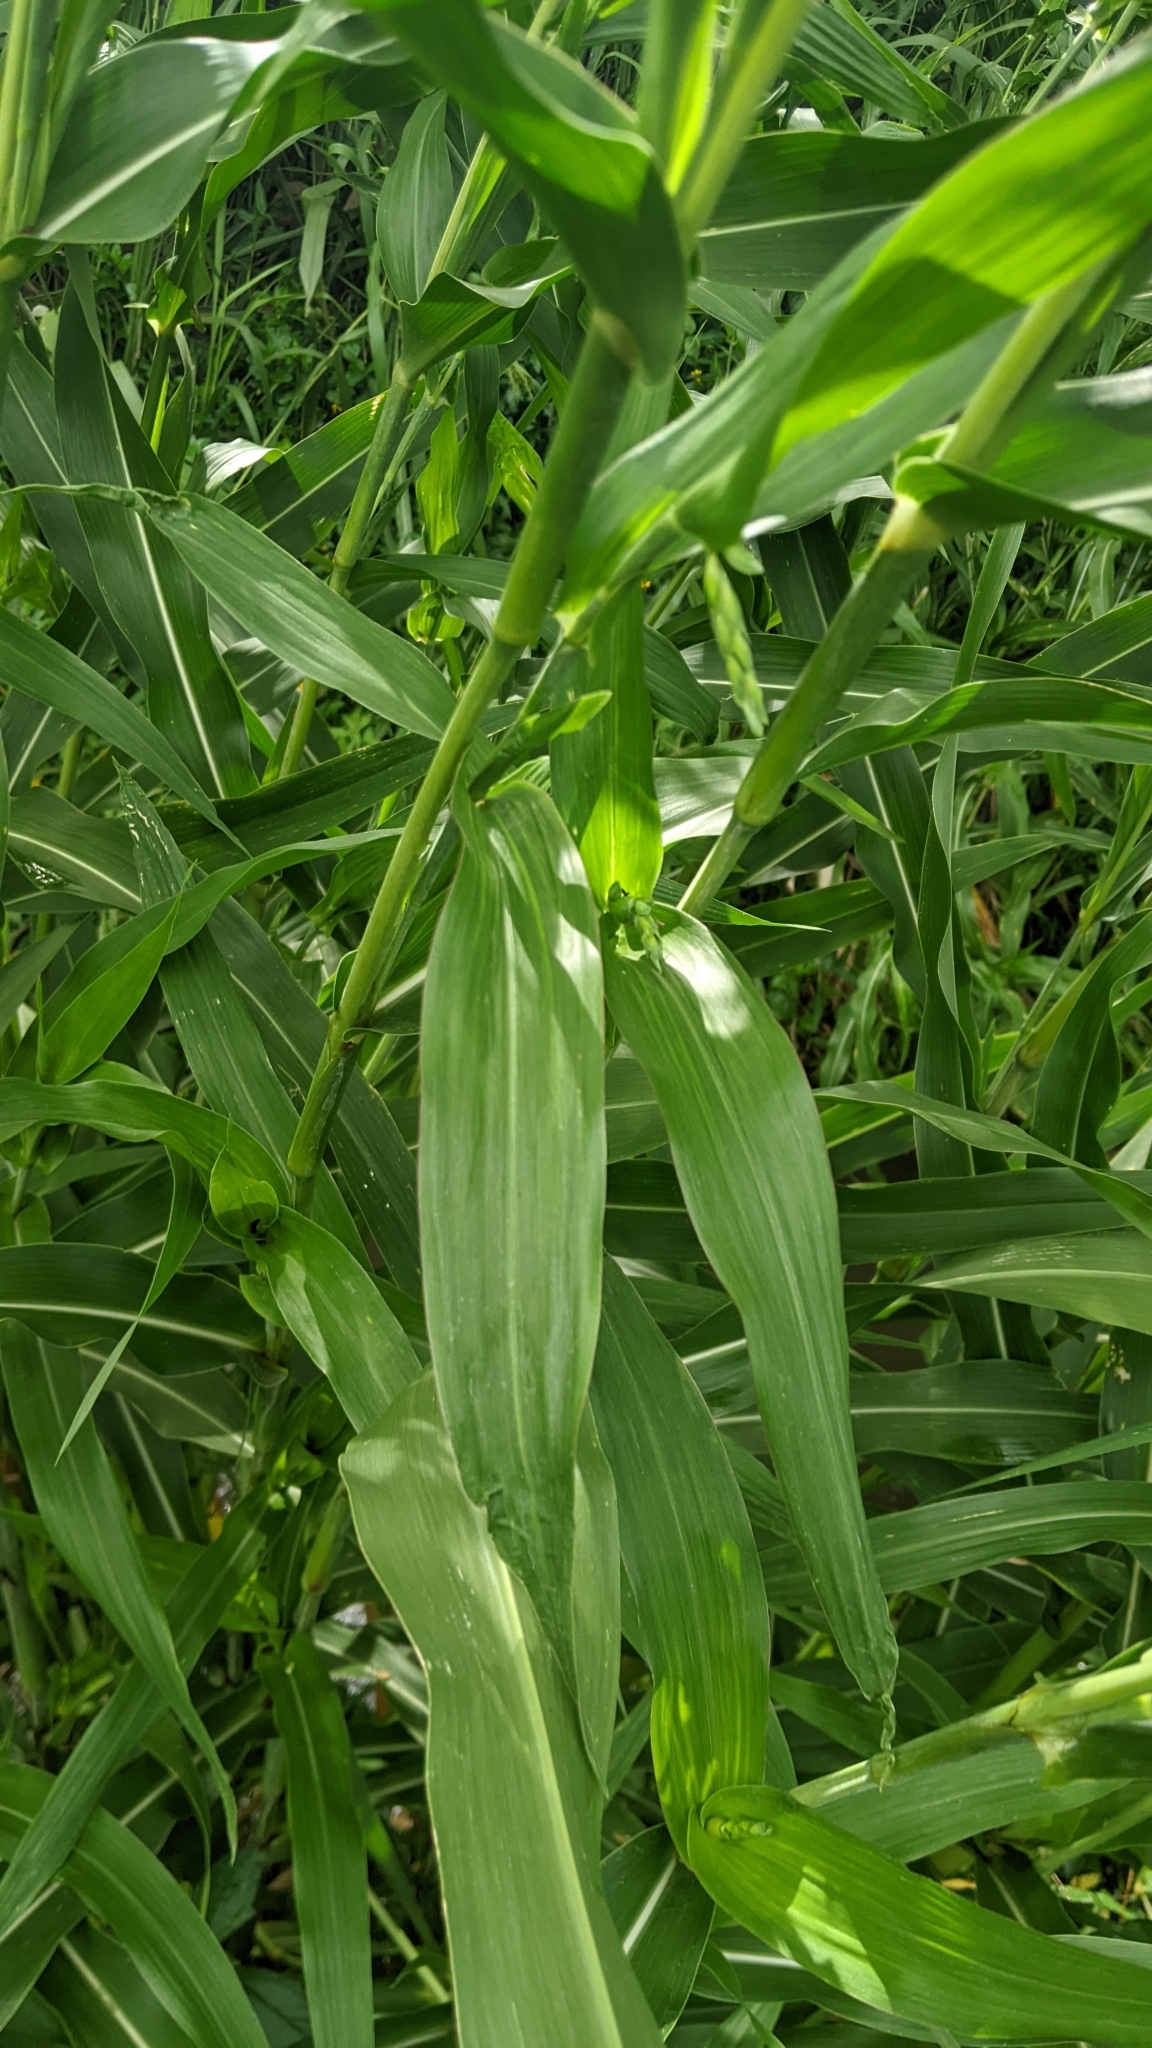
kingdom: Plantae
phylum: Tracheophyta
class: Liliopsida
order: Poales
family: Poaceae
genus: Coix
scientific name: Coix lacryma-jobi
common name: Job's tears
